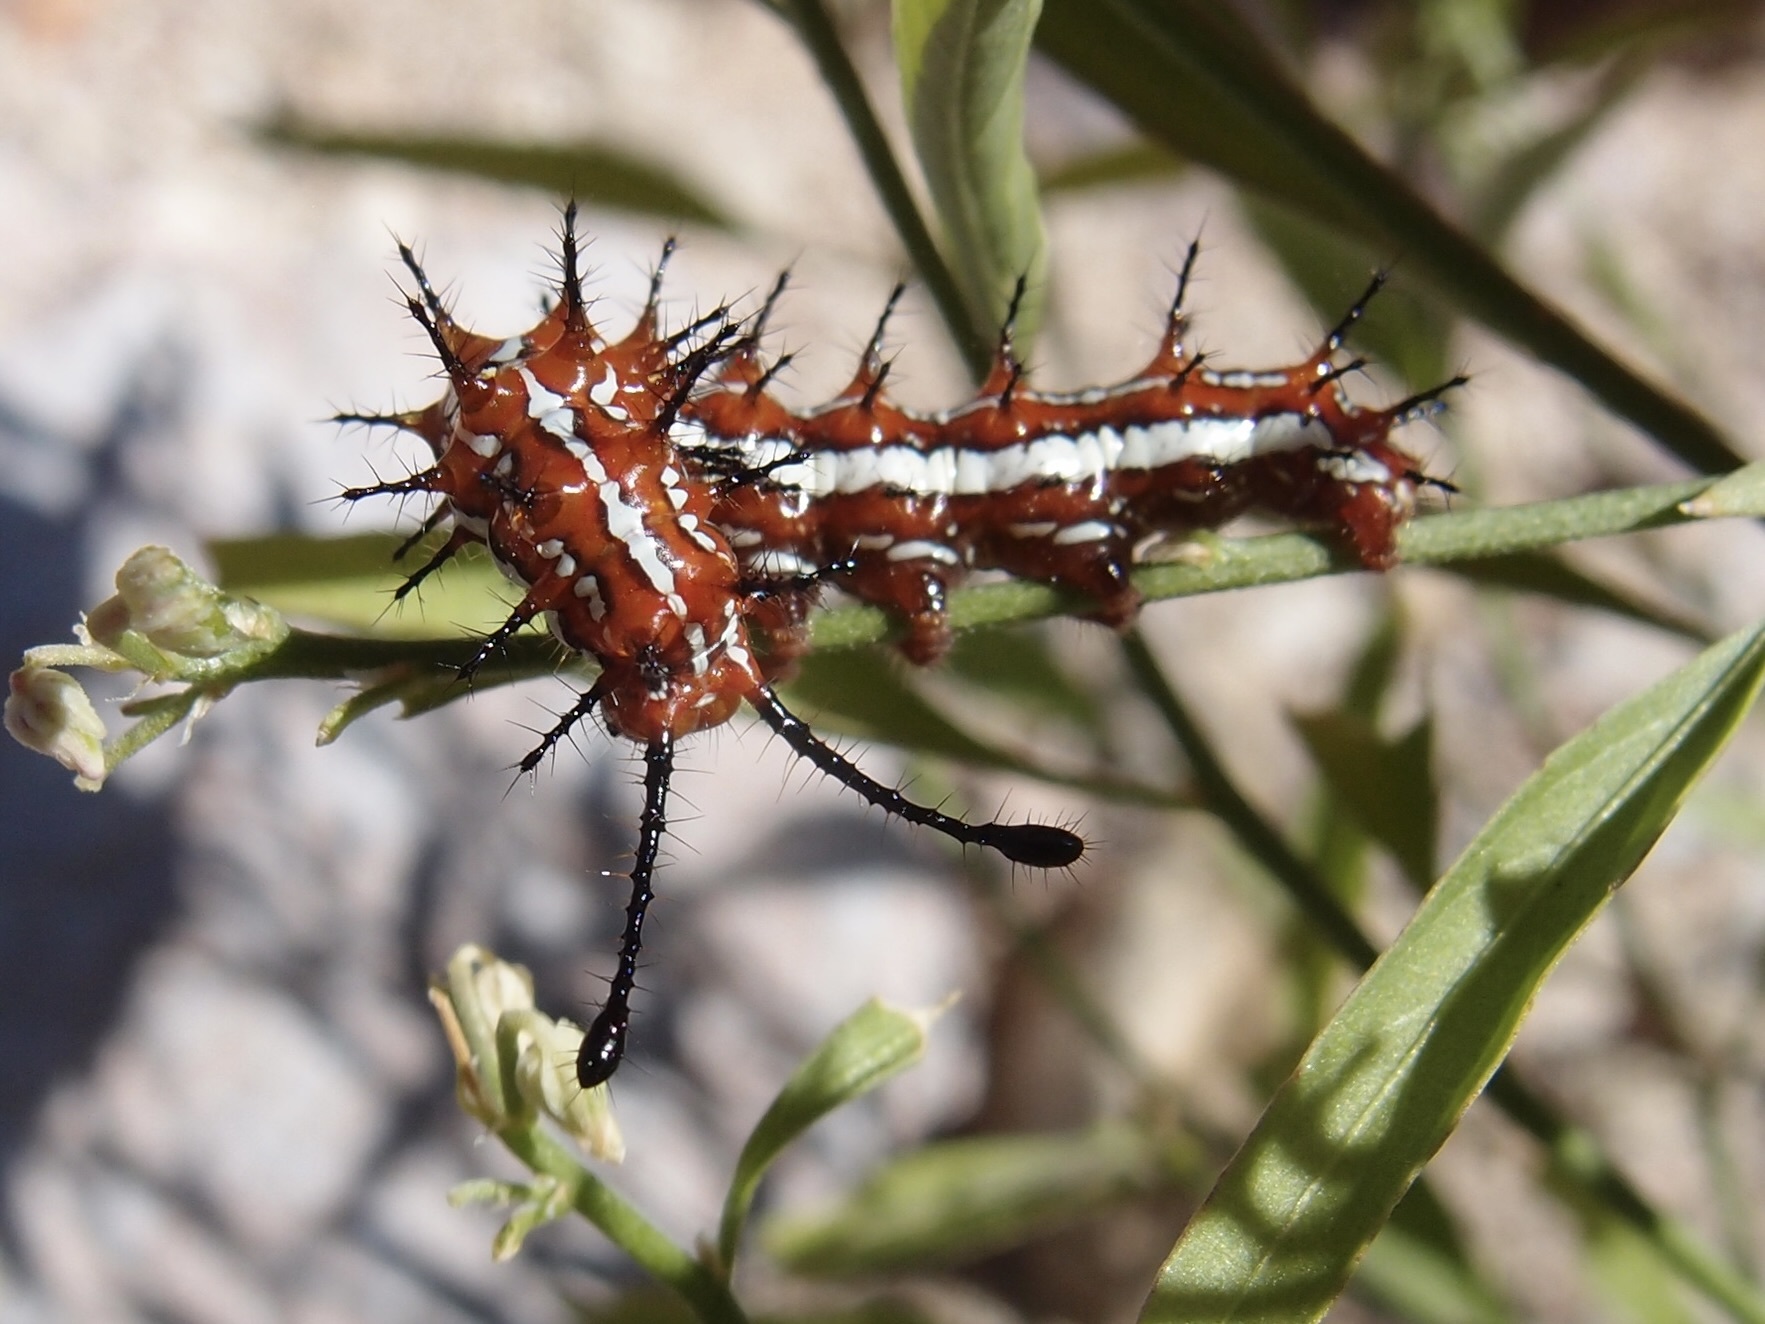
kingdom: Animalia
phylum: Arthropoda
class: Insecta
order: Lepidoptera
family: Nymphalidae
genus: Euptoieta
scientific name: Euptoieta hegesia
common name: Mexican fritillary
